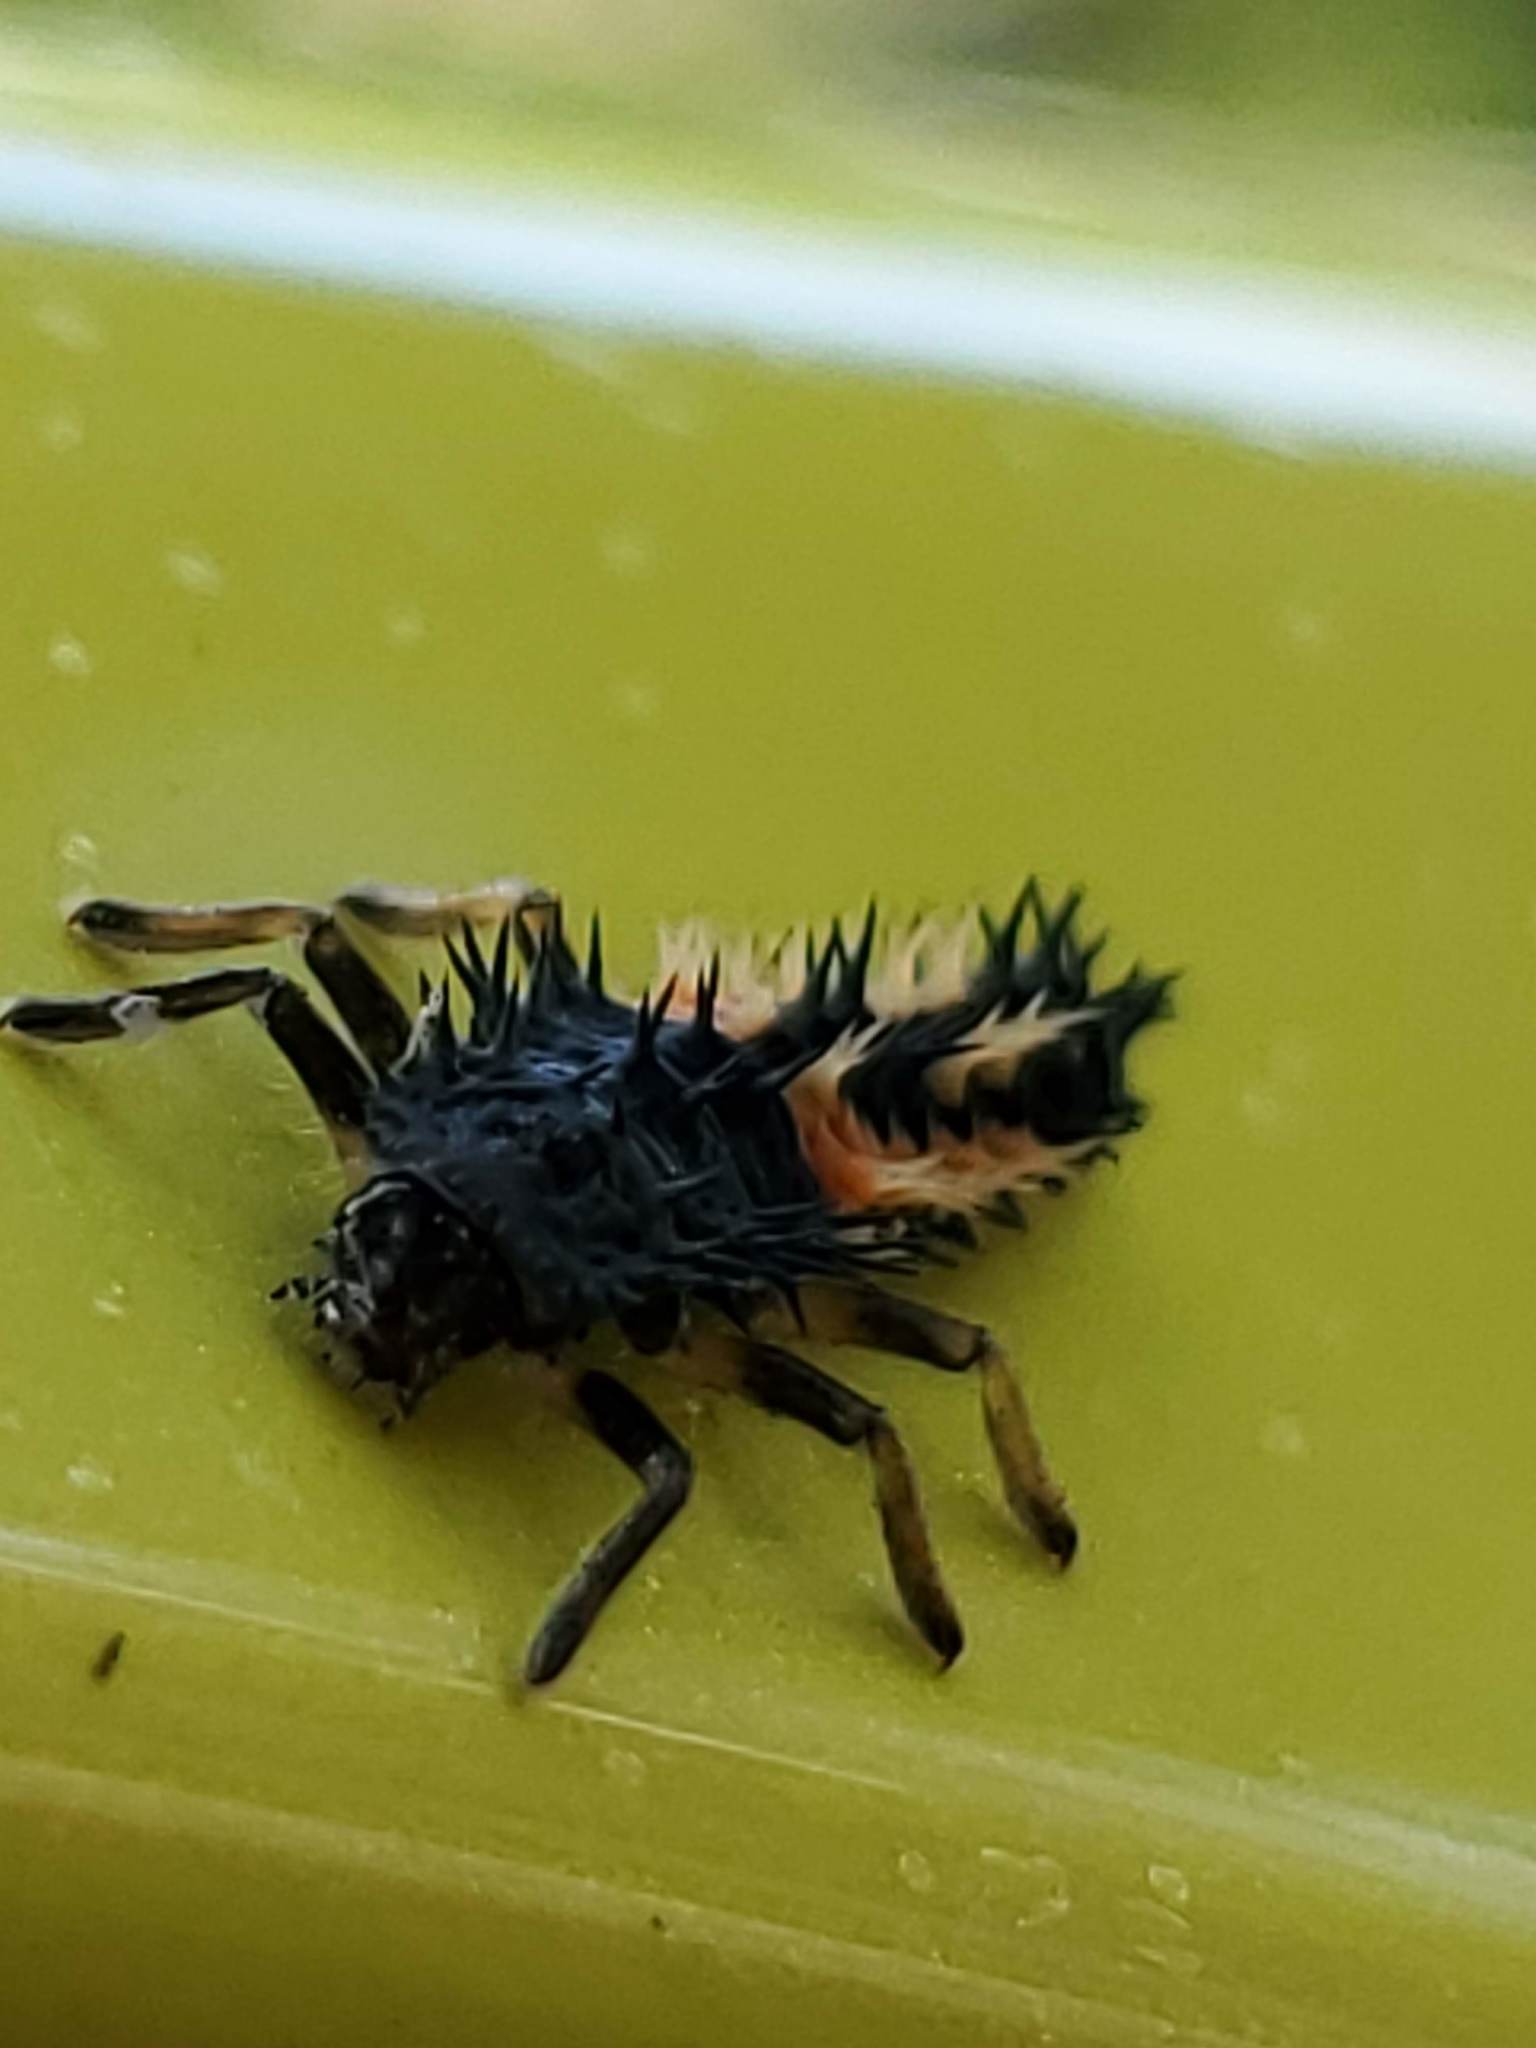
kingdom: Animalia
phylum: Arthropoda
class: Insecta
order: Coleoptera
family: Coccinellidae
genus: Harmonia
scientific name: Harmonia axyridis
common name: Harlequin ladybird
